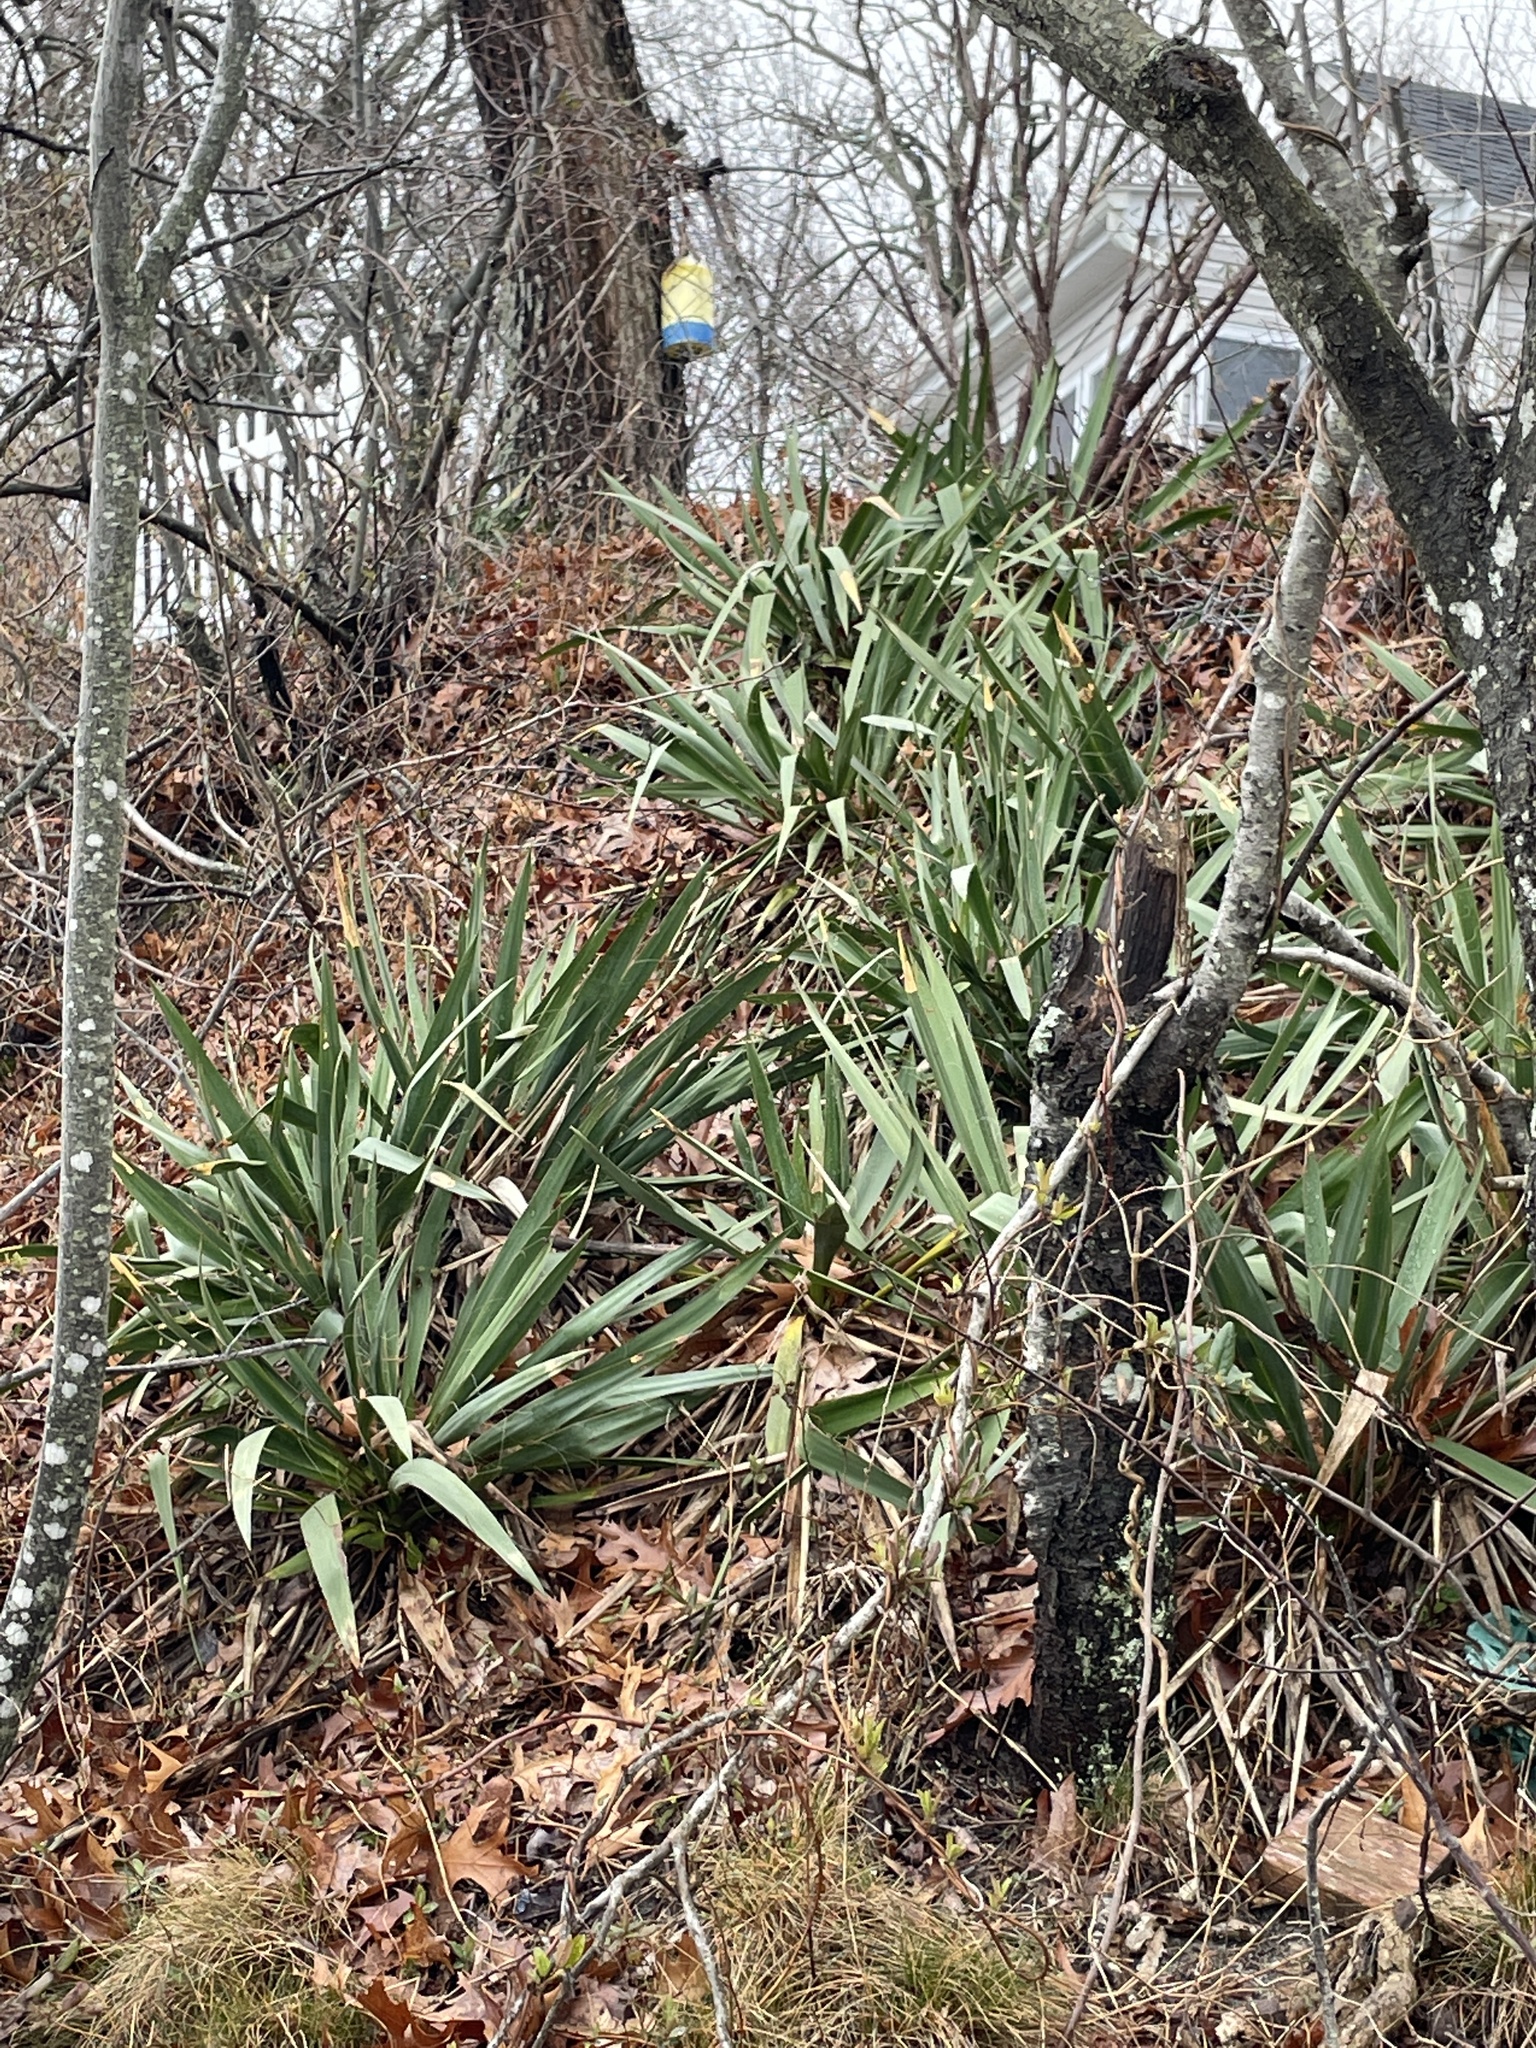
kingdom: Plantae
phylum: Tracheophyta
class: Liliopsida
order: Asparagales
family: Asparagaceae
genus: Yucca
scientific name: Yucca filamentosa
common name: Adam's-needle
